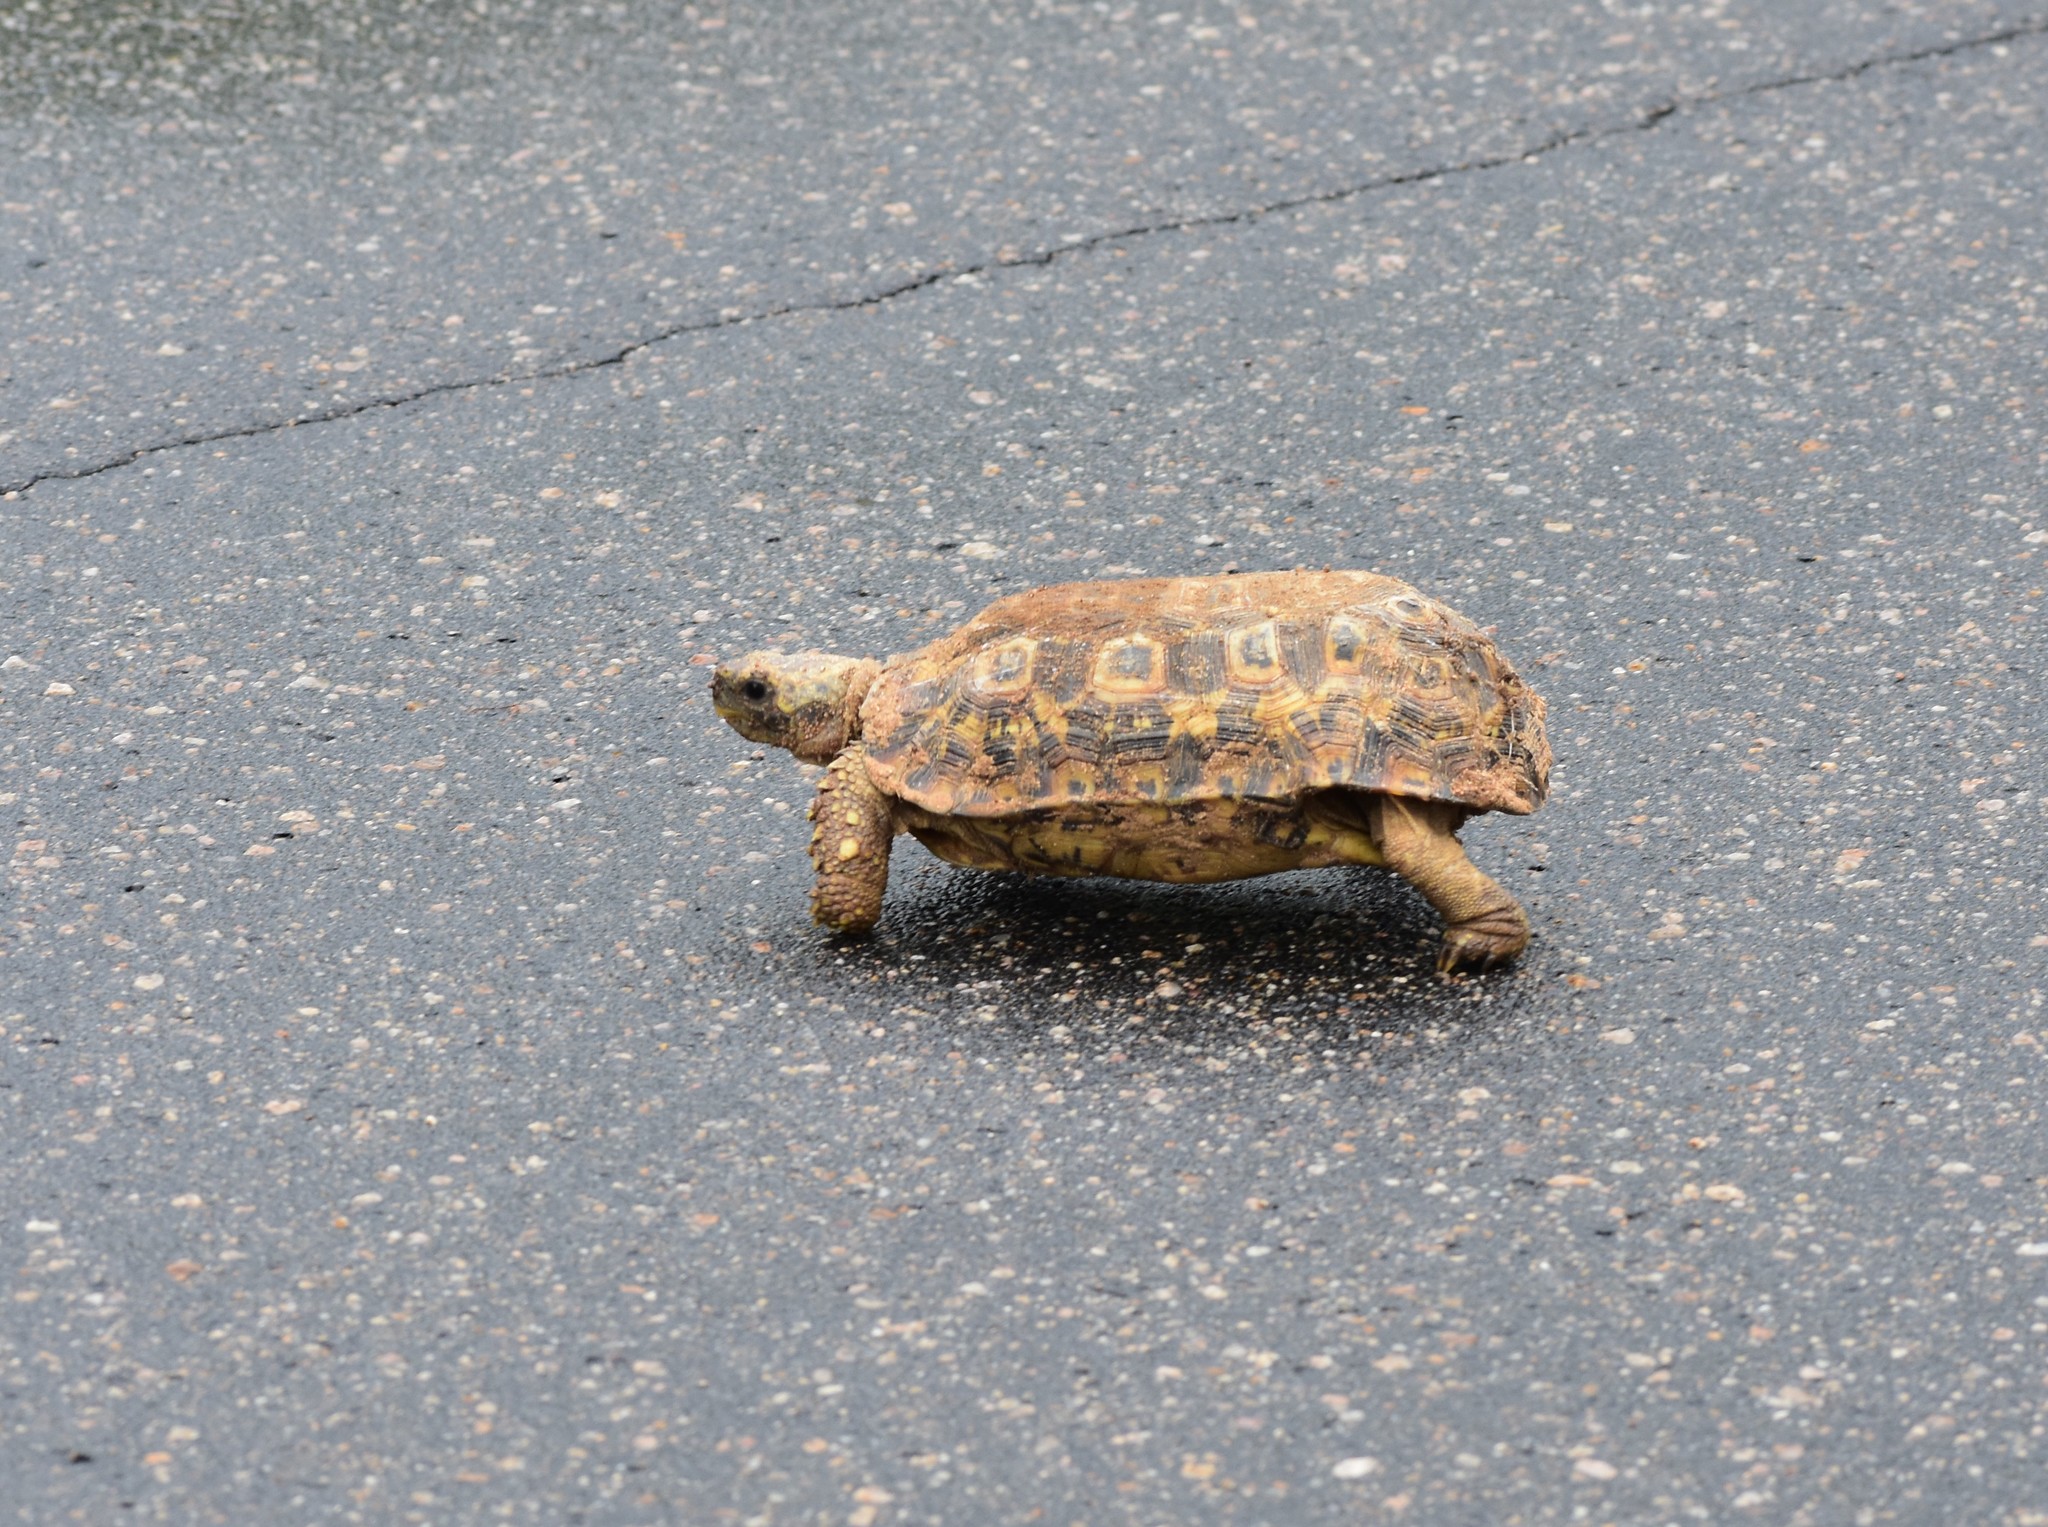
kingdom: Animalia
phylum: Chordata
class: Testudines
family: Testudinidae
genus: Kinixys
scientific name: Kinixys spekii
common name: Speke's hingeback tortoise
